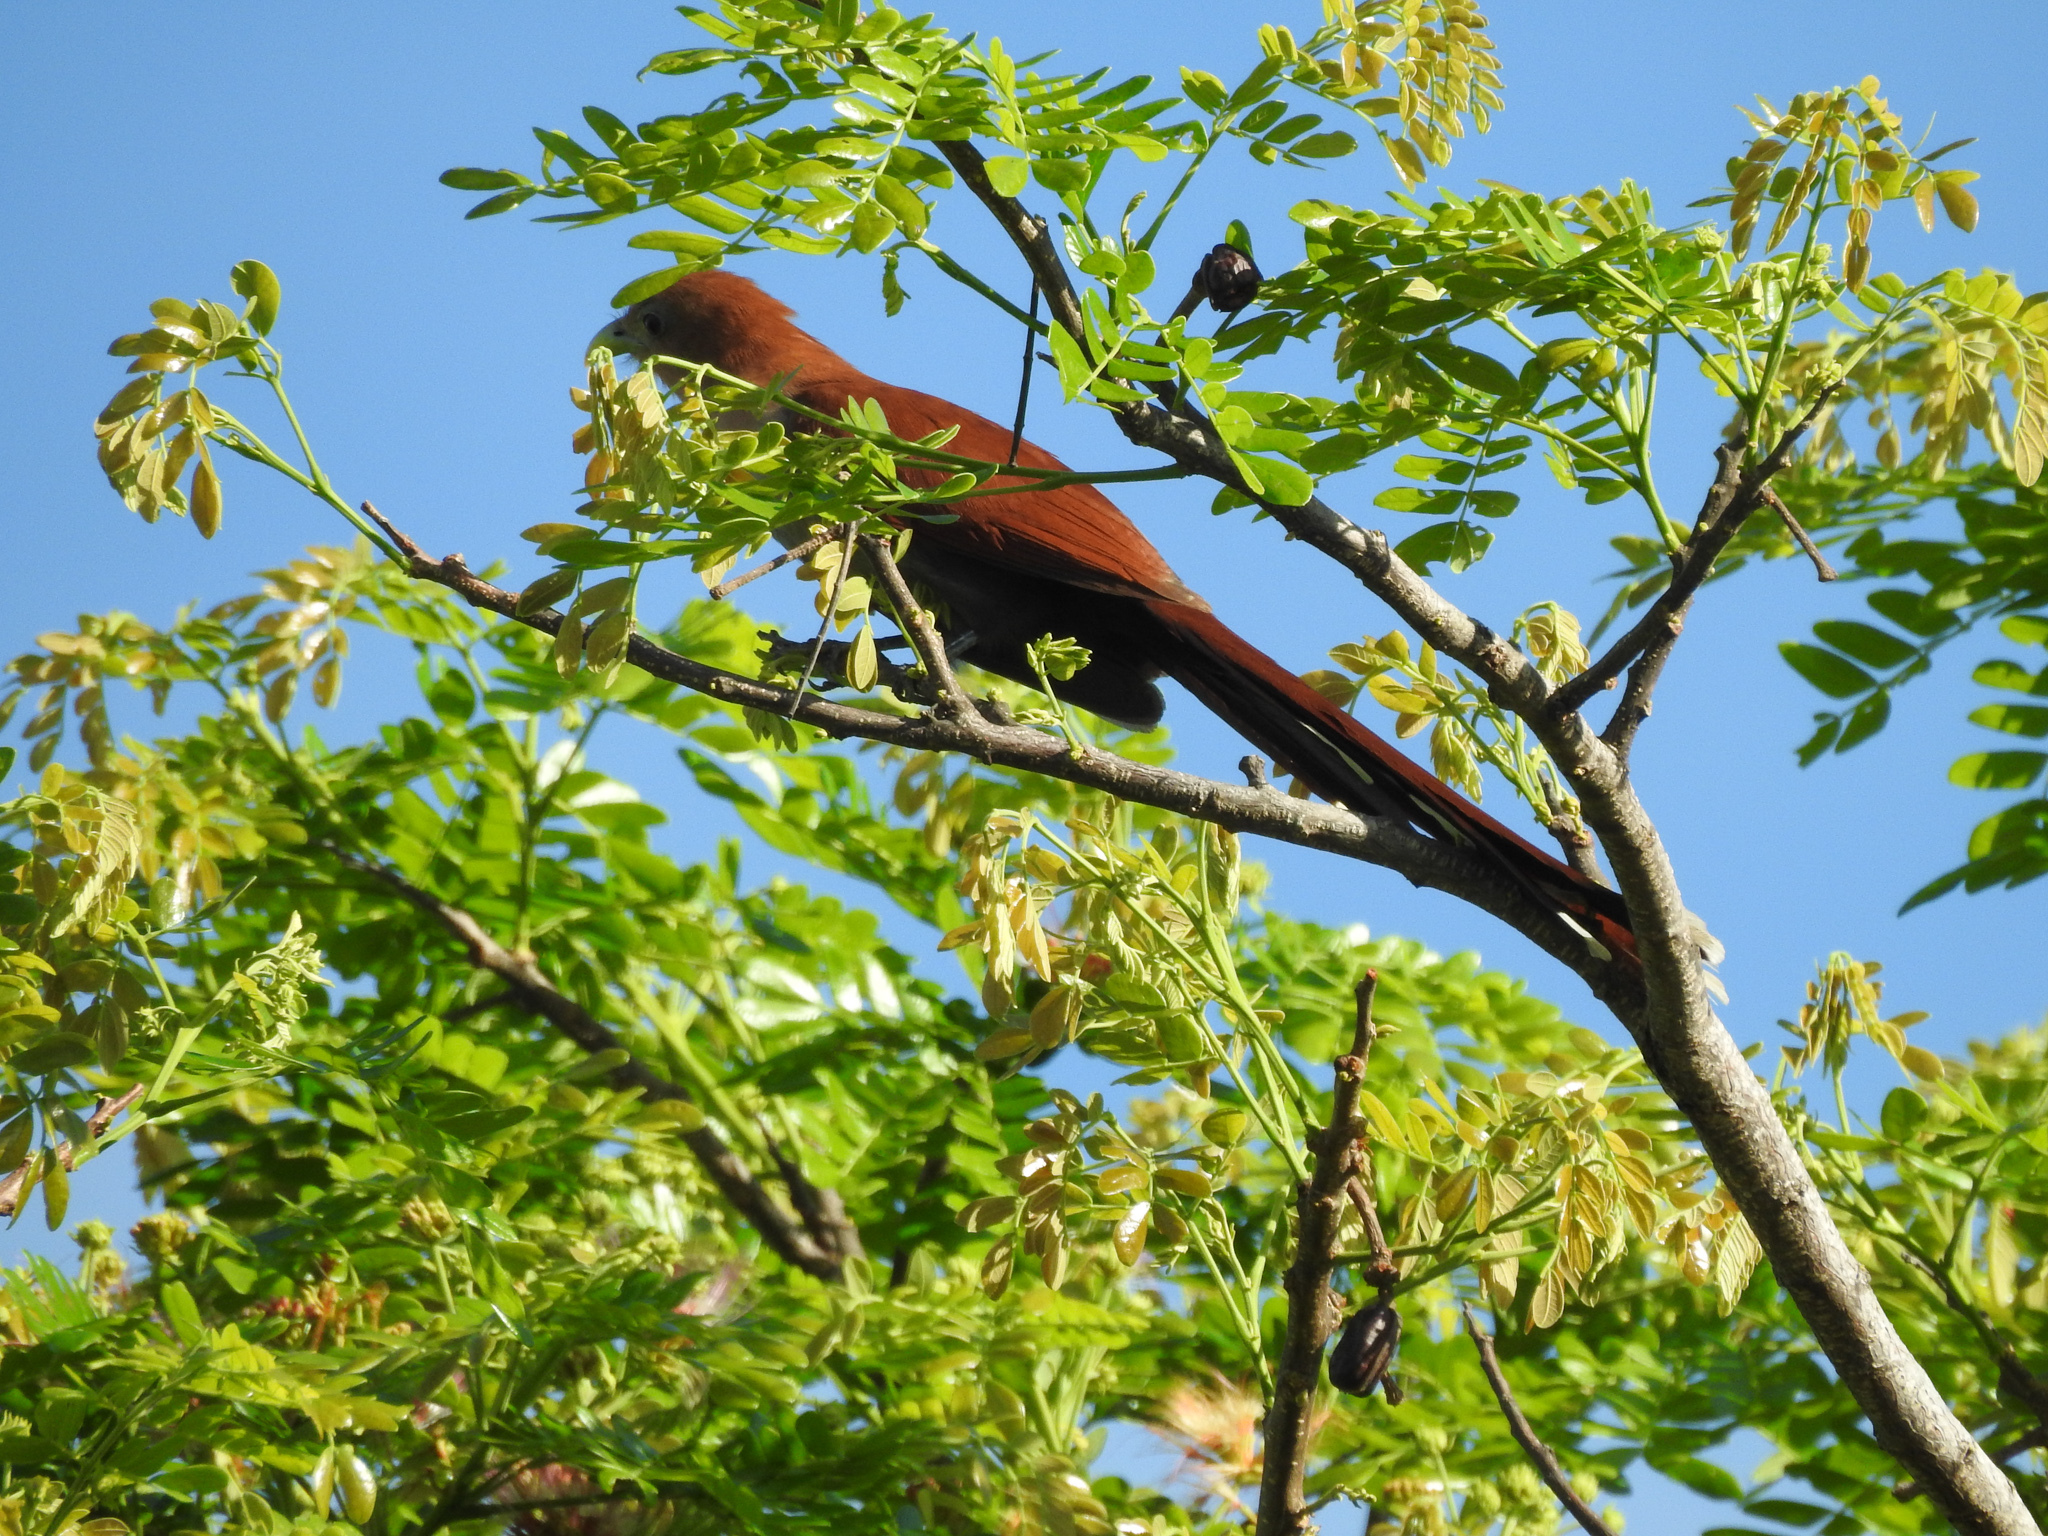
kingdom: Animalia
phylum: Chordata
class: Aves
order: Cuculiformes
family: Cuculidae
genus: Piaya
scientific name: Piaya cayana
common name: Squirrel cuckoo
